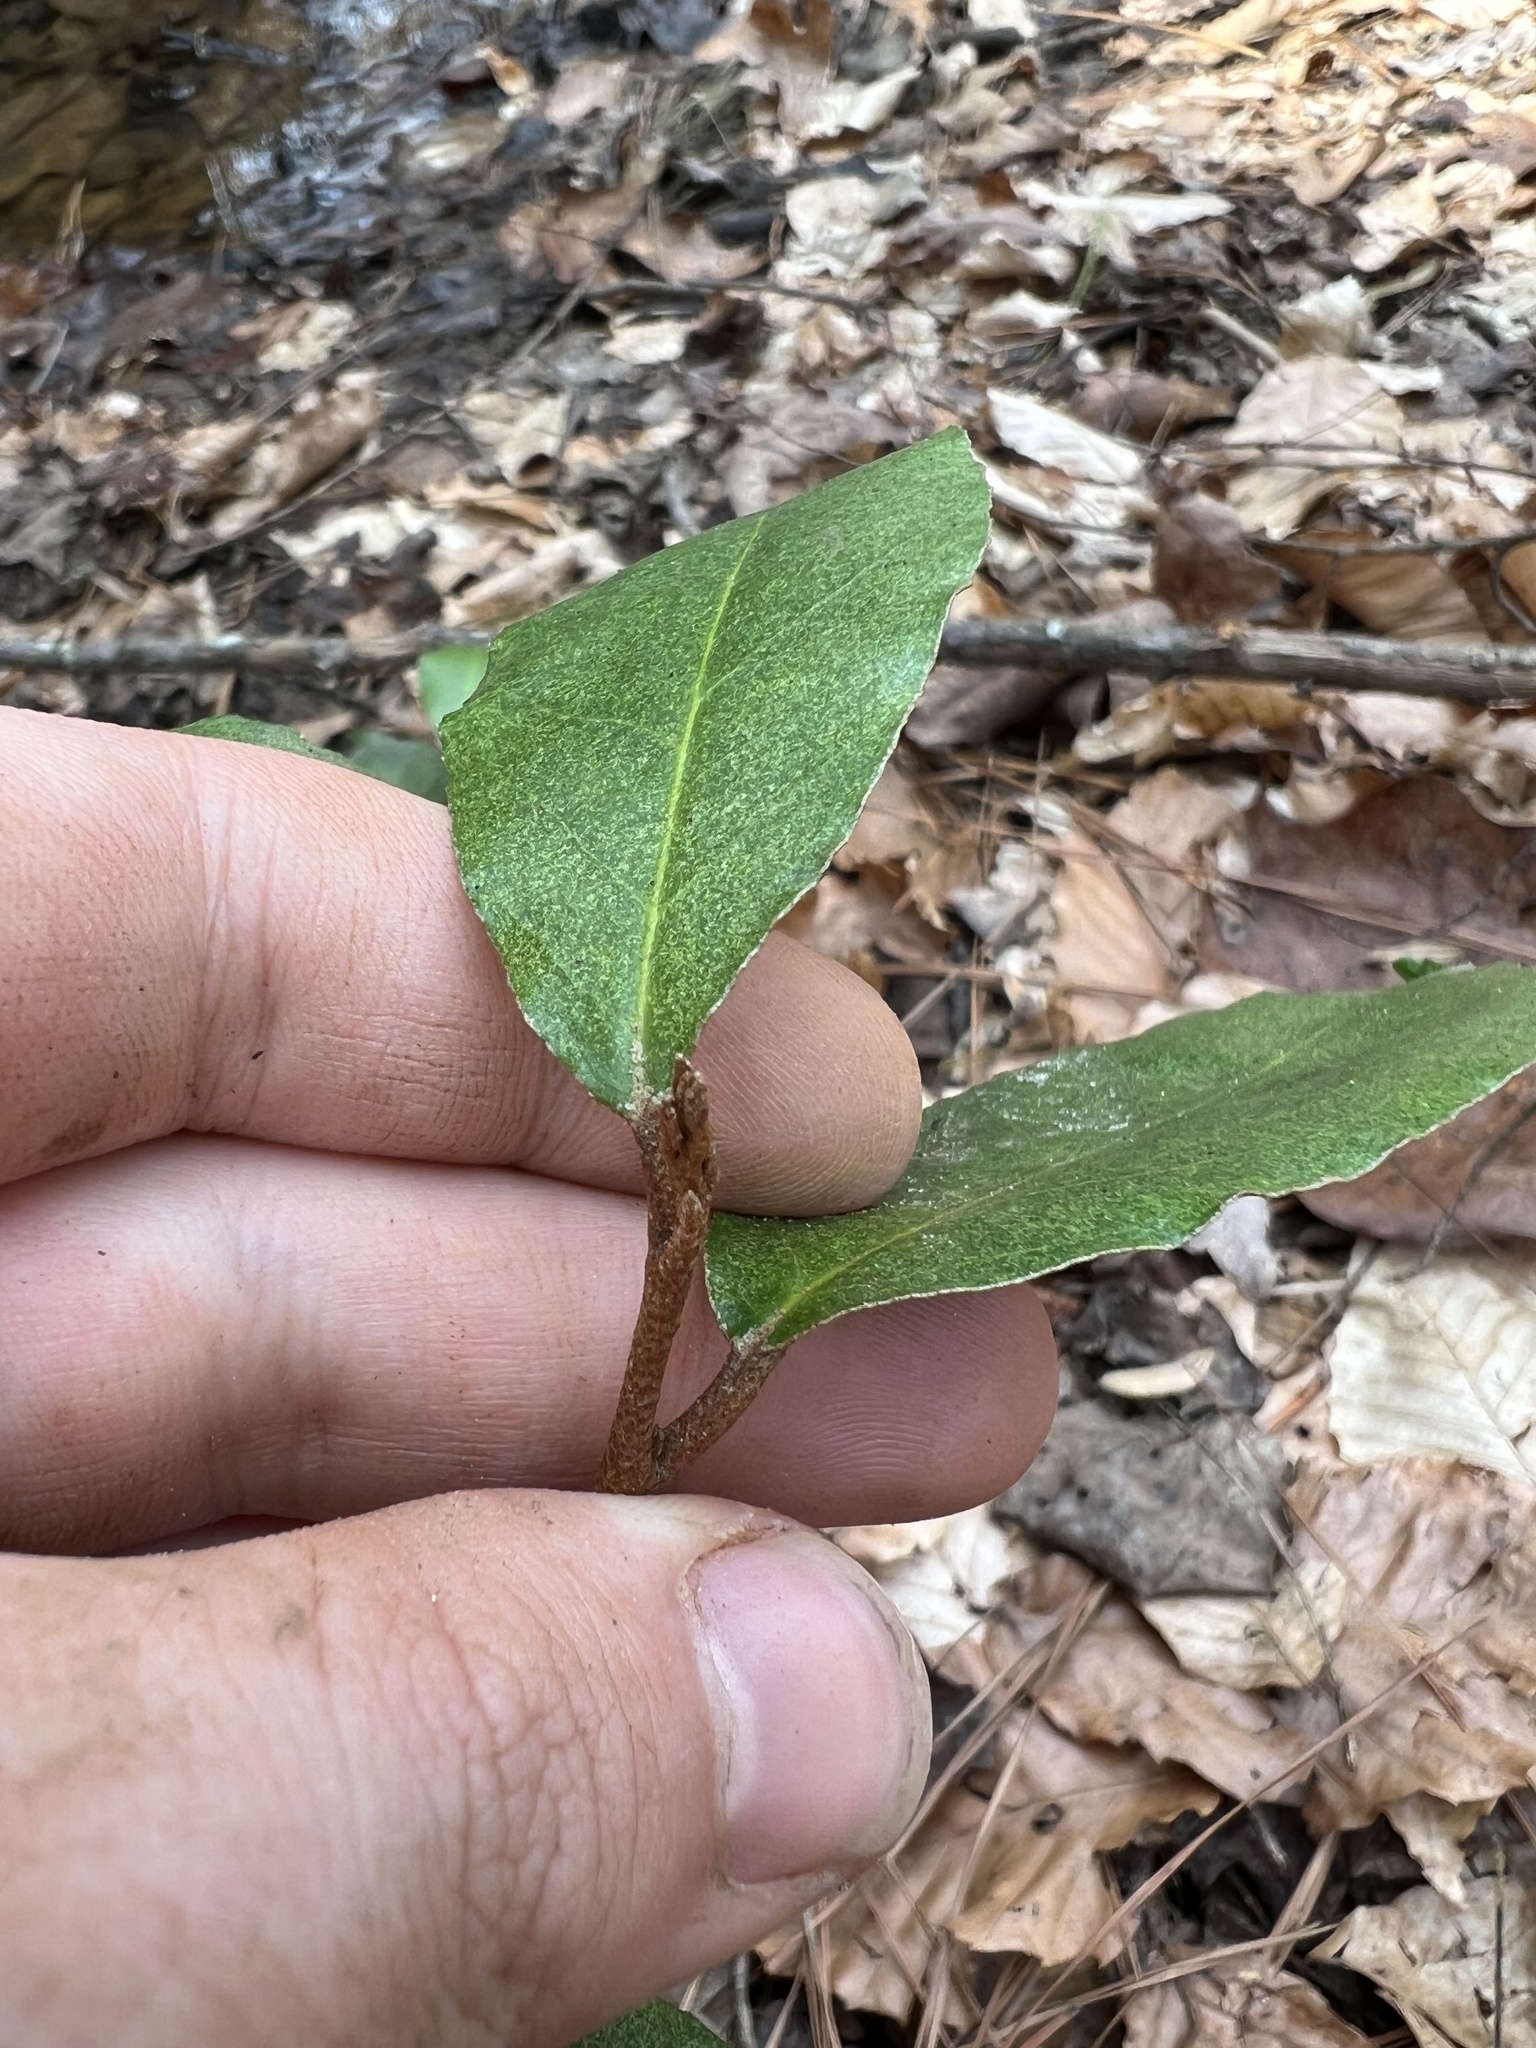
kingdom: Plantae
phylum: Tracheophyta
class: Magnoliopsida
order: Rosales
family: Elaeagnaceae
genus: Elaeagnus
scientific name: Elaeagnus umbellata
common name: Autumn olive
